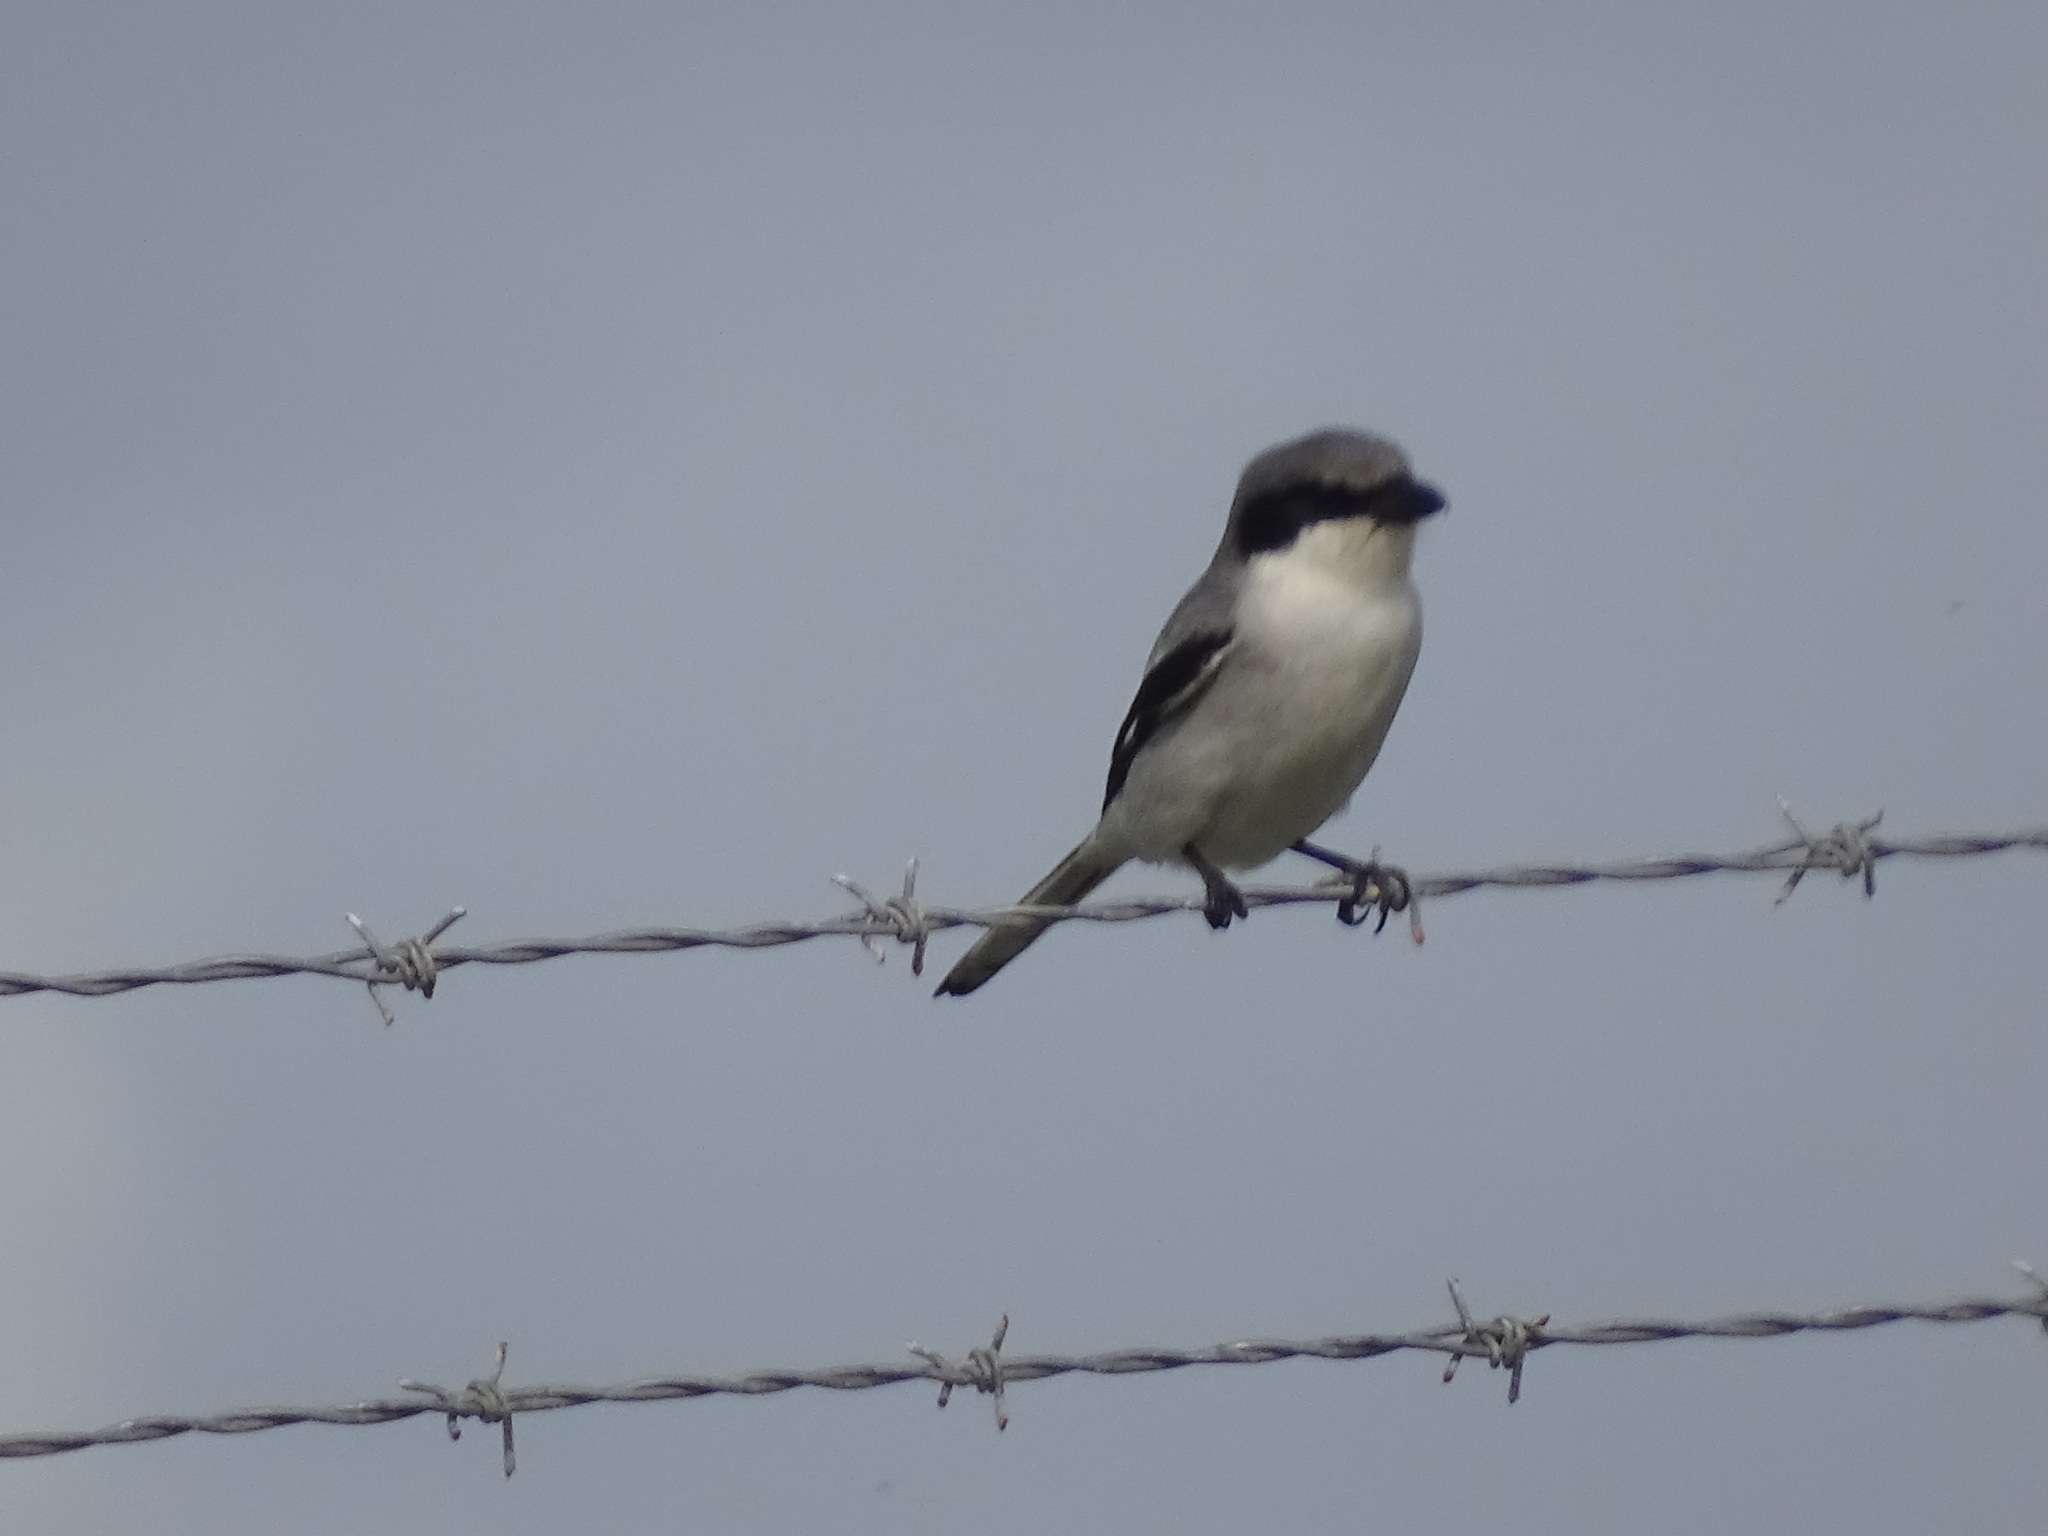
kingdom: Animalia
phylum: Chordata
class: Aves
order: Passeriformes
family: Laniidae
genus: Lanius
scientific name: Lanius ludovicianus
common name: Loggerhead shrike
